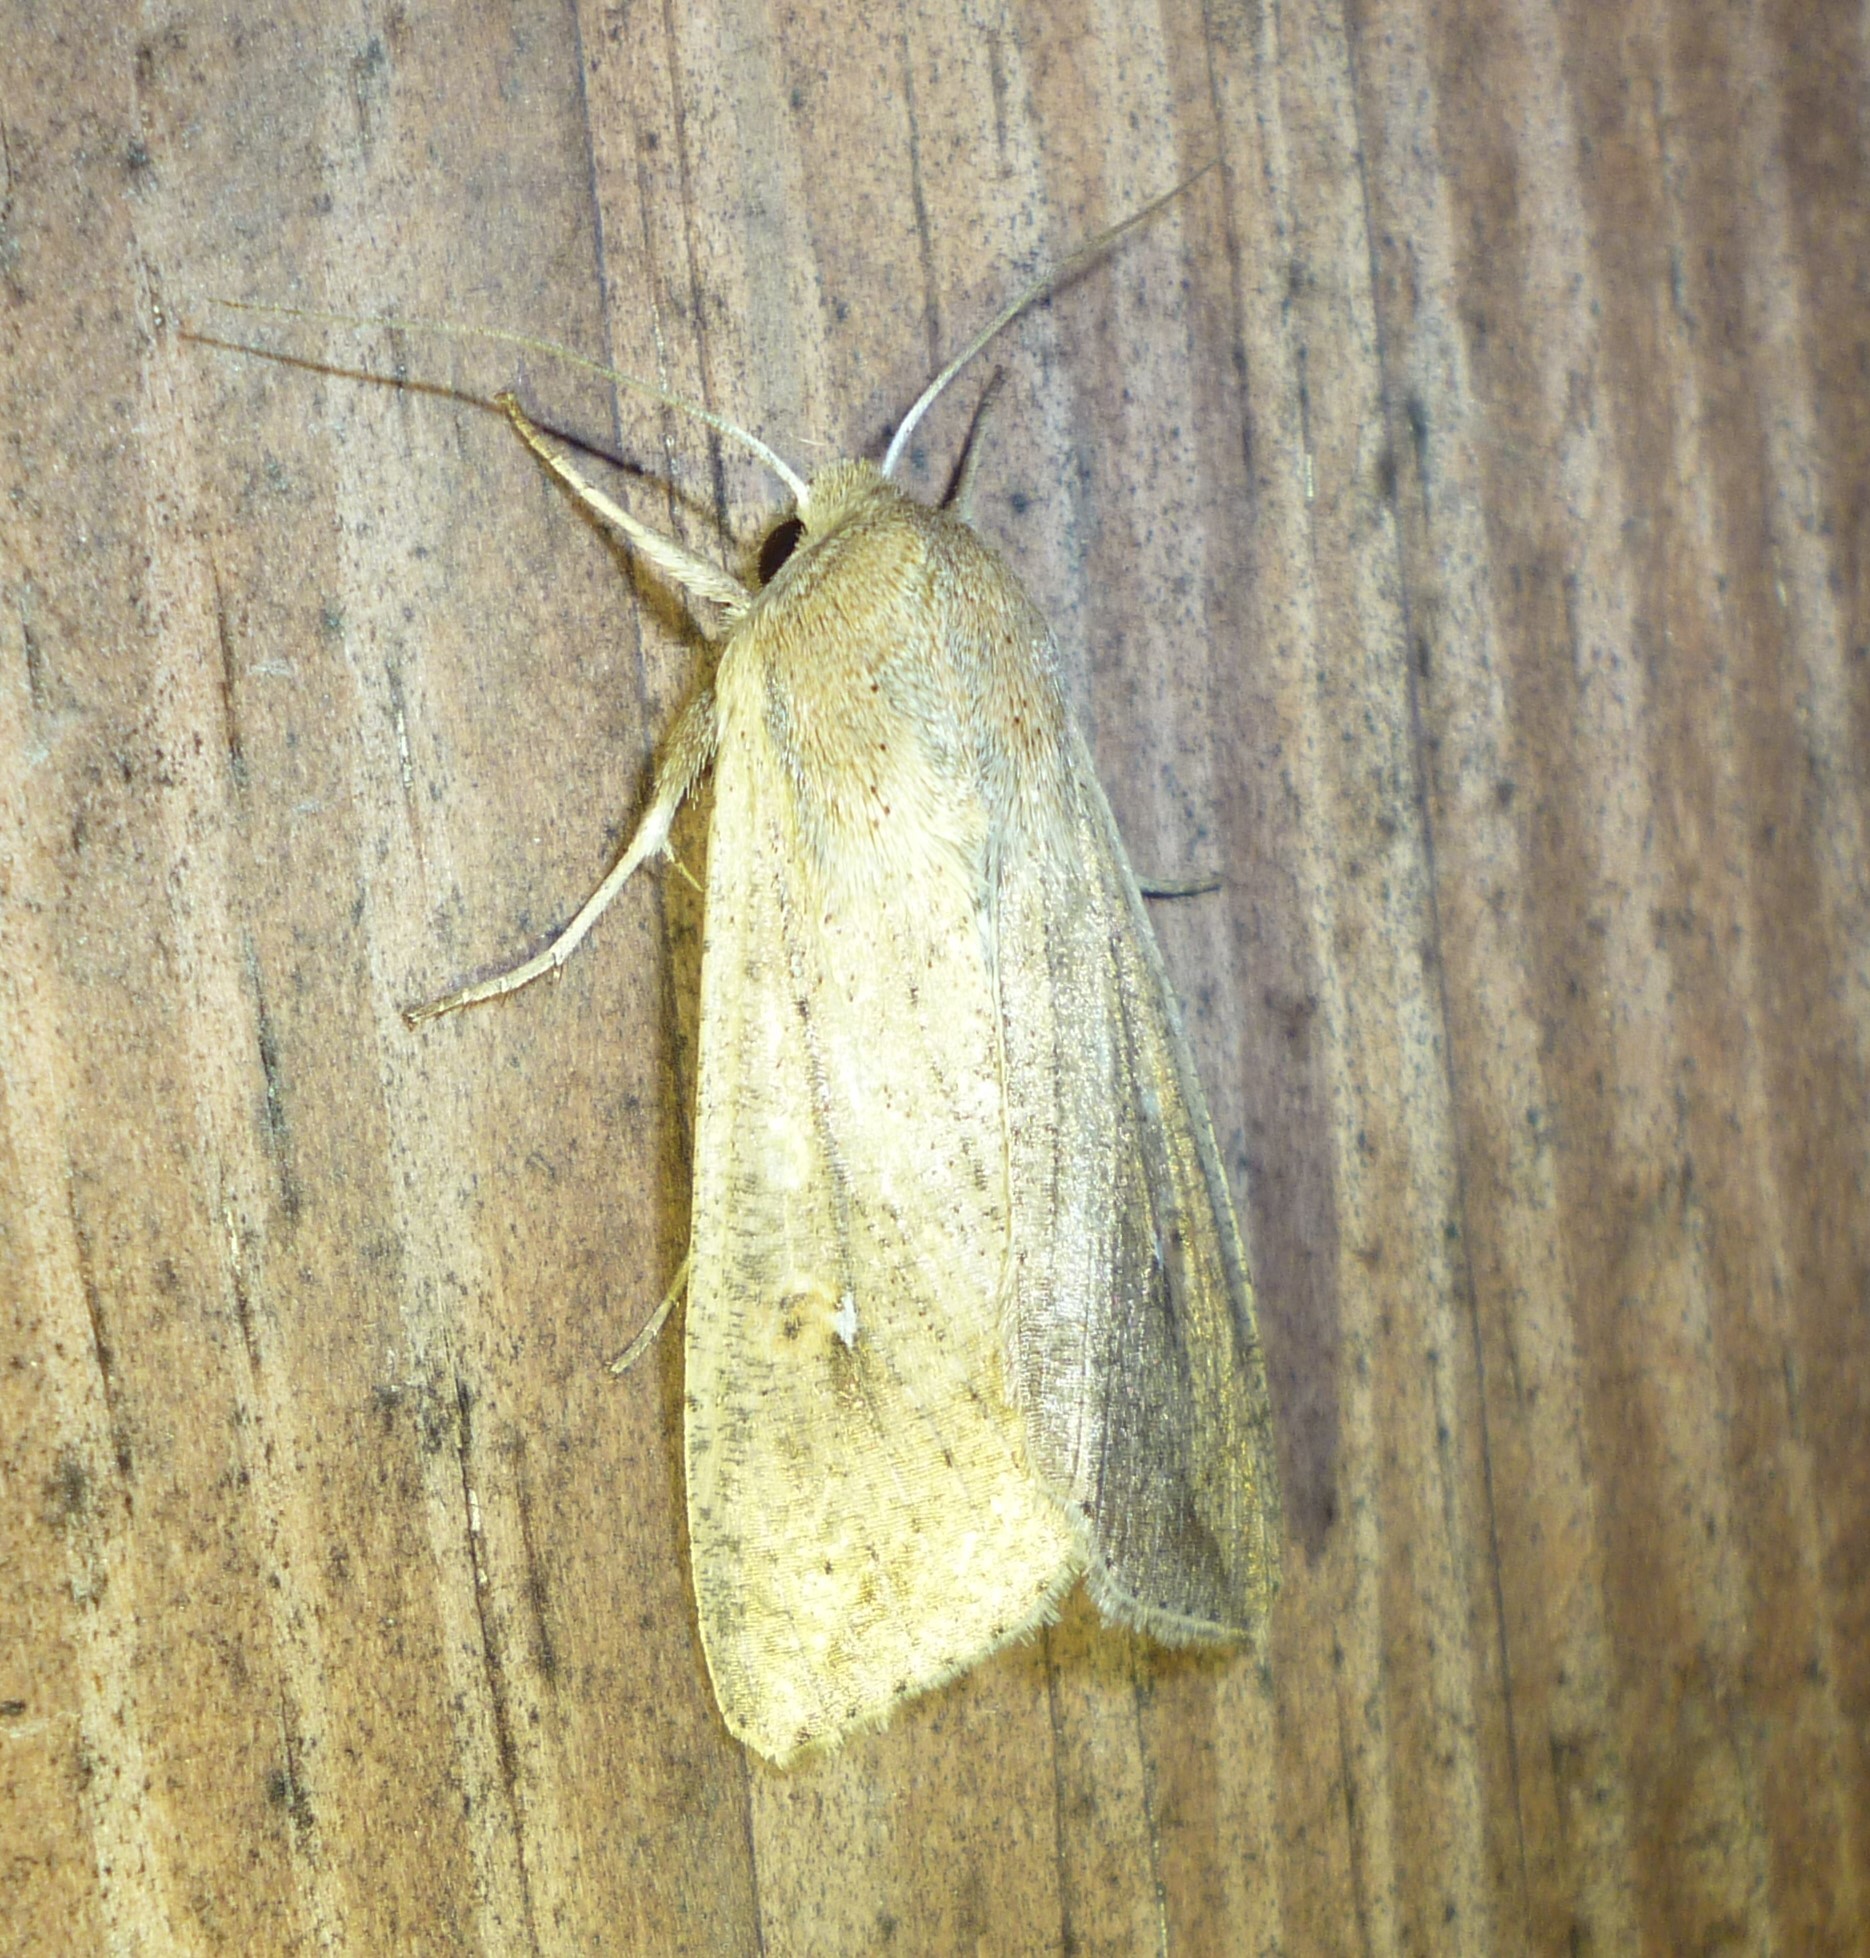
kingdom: Animalia
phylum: Arthropoda
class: Insecta
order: Lepidoptera
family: Noctuidae
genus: Mythimna
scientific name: Mythimna unipuncta
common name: White-speck
